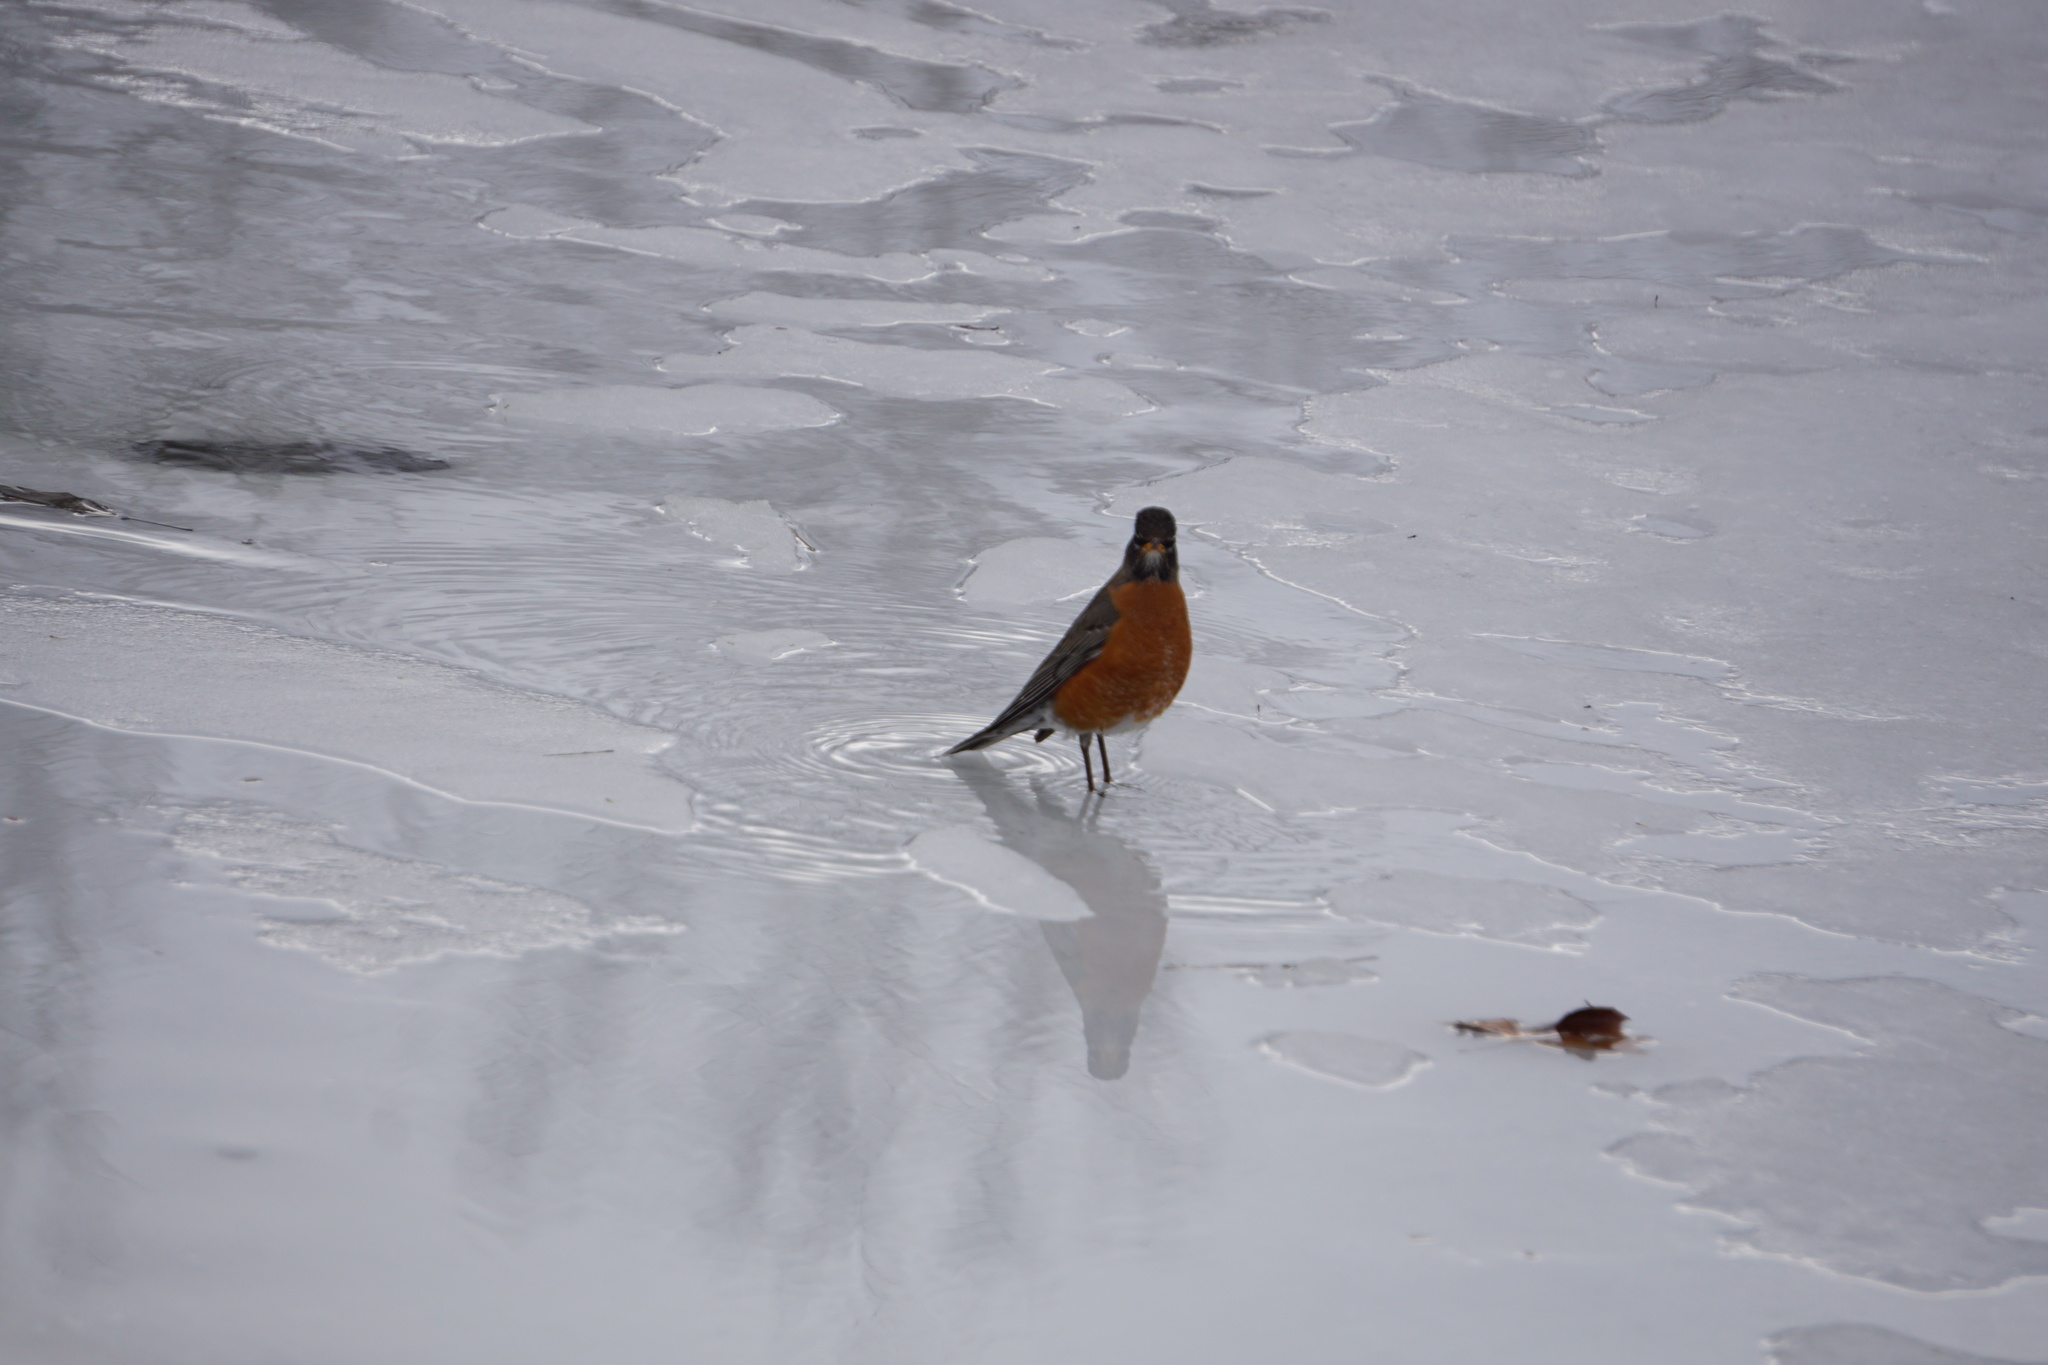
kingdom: Animalia
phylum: Chordata
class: Aves
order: Passeriformes
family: Turdidae
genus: Turdus
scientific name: Turdus migratorius
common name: American robin
